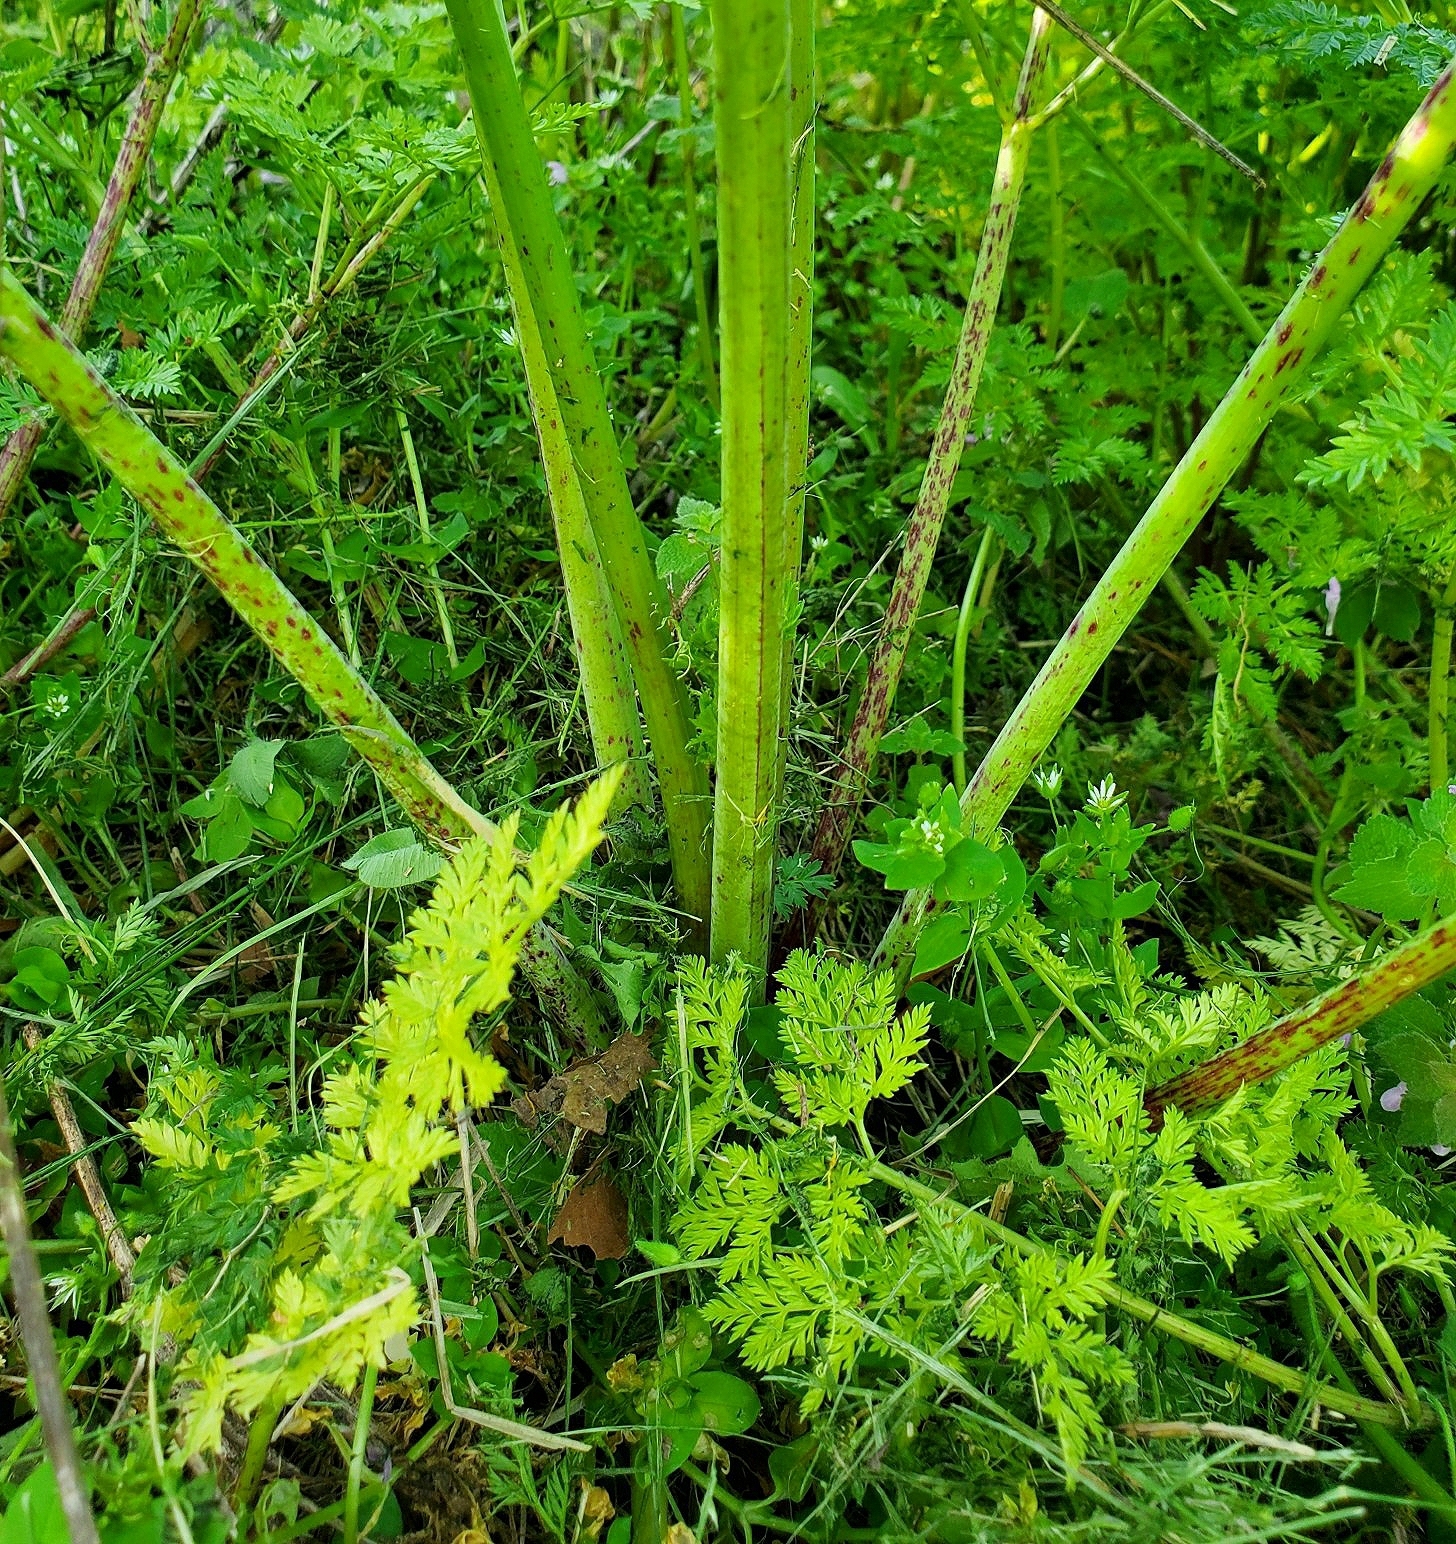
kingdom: Plantae
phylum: Tracheophyta
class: Magnoliopsida
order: Apiales
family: Apiaceae
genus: Conium
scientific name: Conium maculatum
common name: Hemlock
